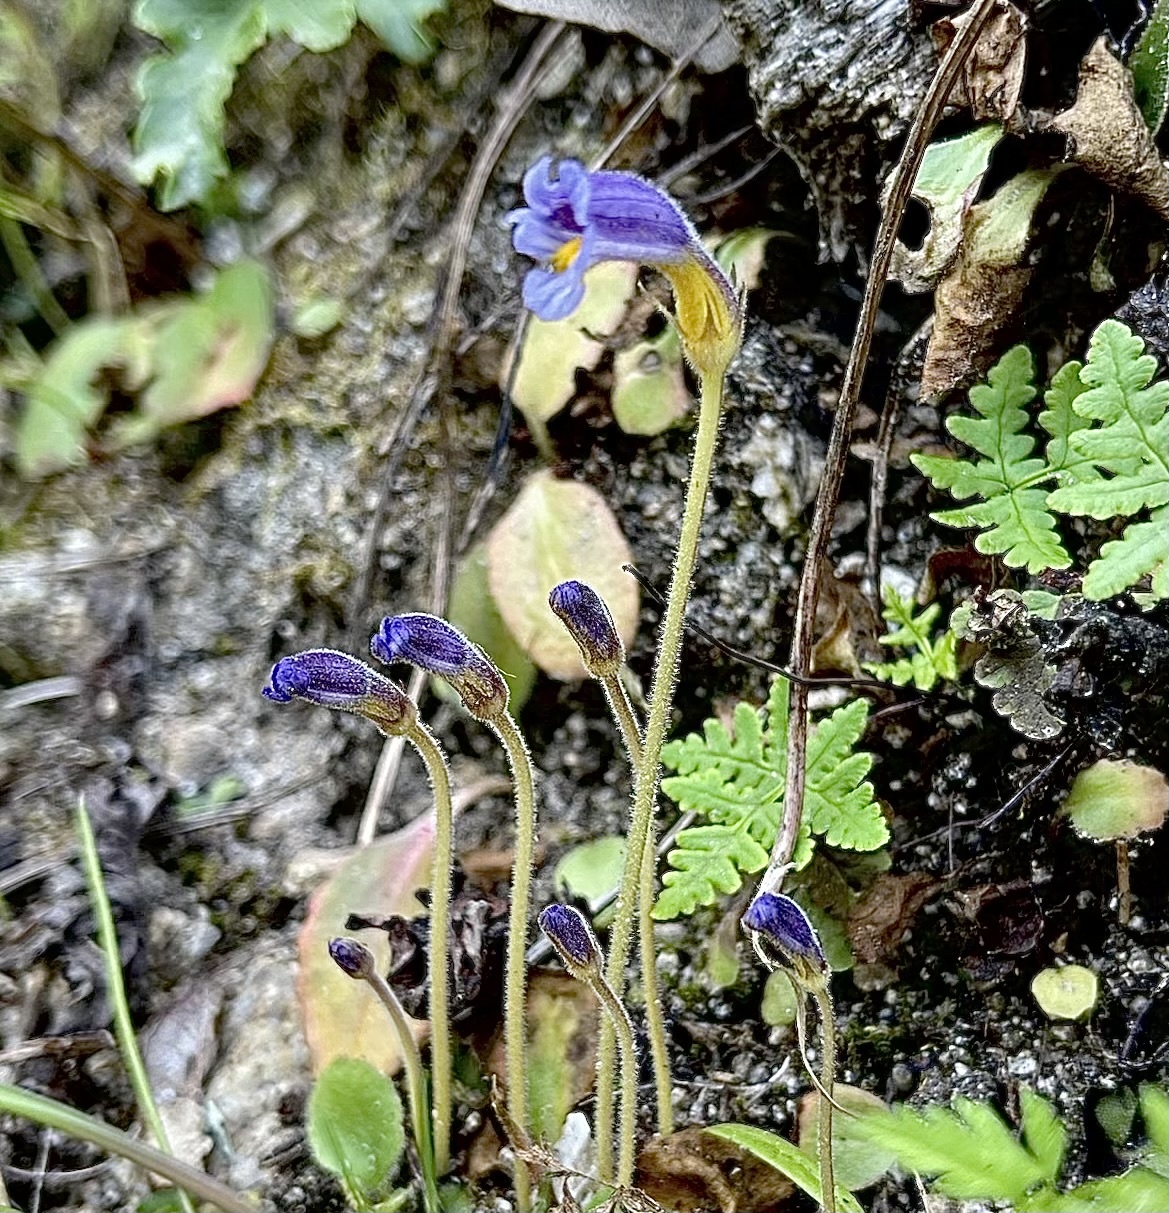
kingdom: Plantae
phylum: Tracheophyta
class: Magnoliopsida
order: Lamiales
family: Orobanchaceae
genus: Aphyllon
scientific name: Aphyllon uniflorum
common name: One-flowered broomrape
